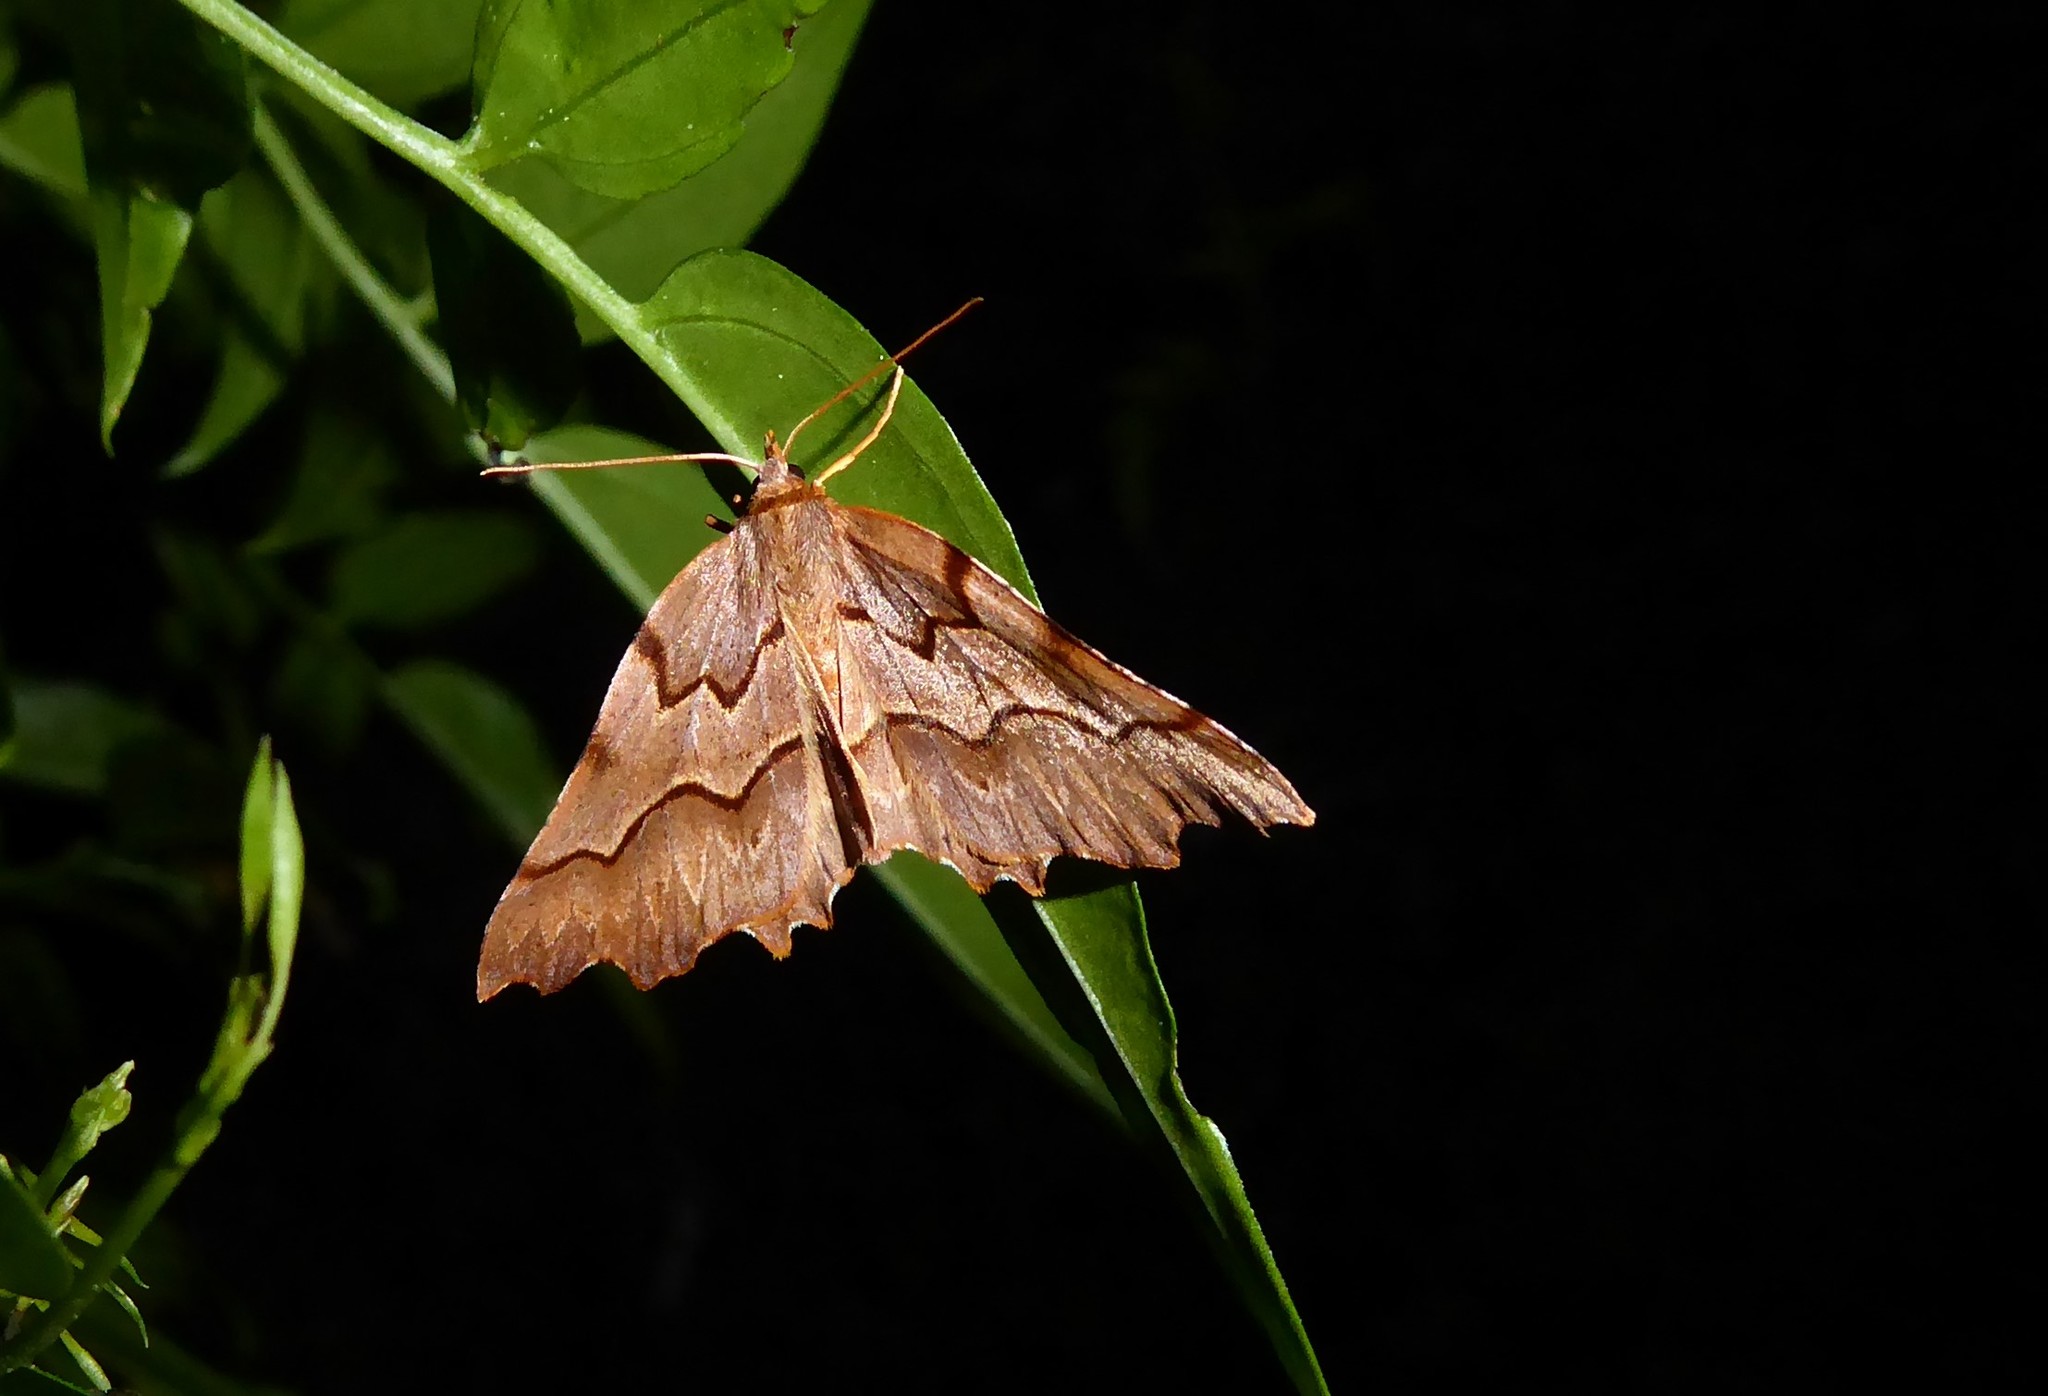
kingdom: Animalia
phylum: Arthropoda
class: Insecta
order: Lepidoptera
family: Geometridae
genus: Ischalis
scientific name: Ischalis fortinata
